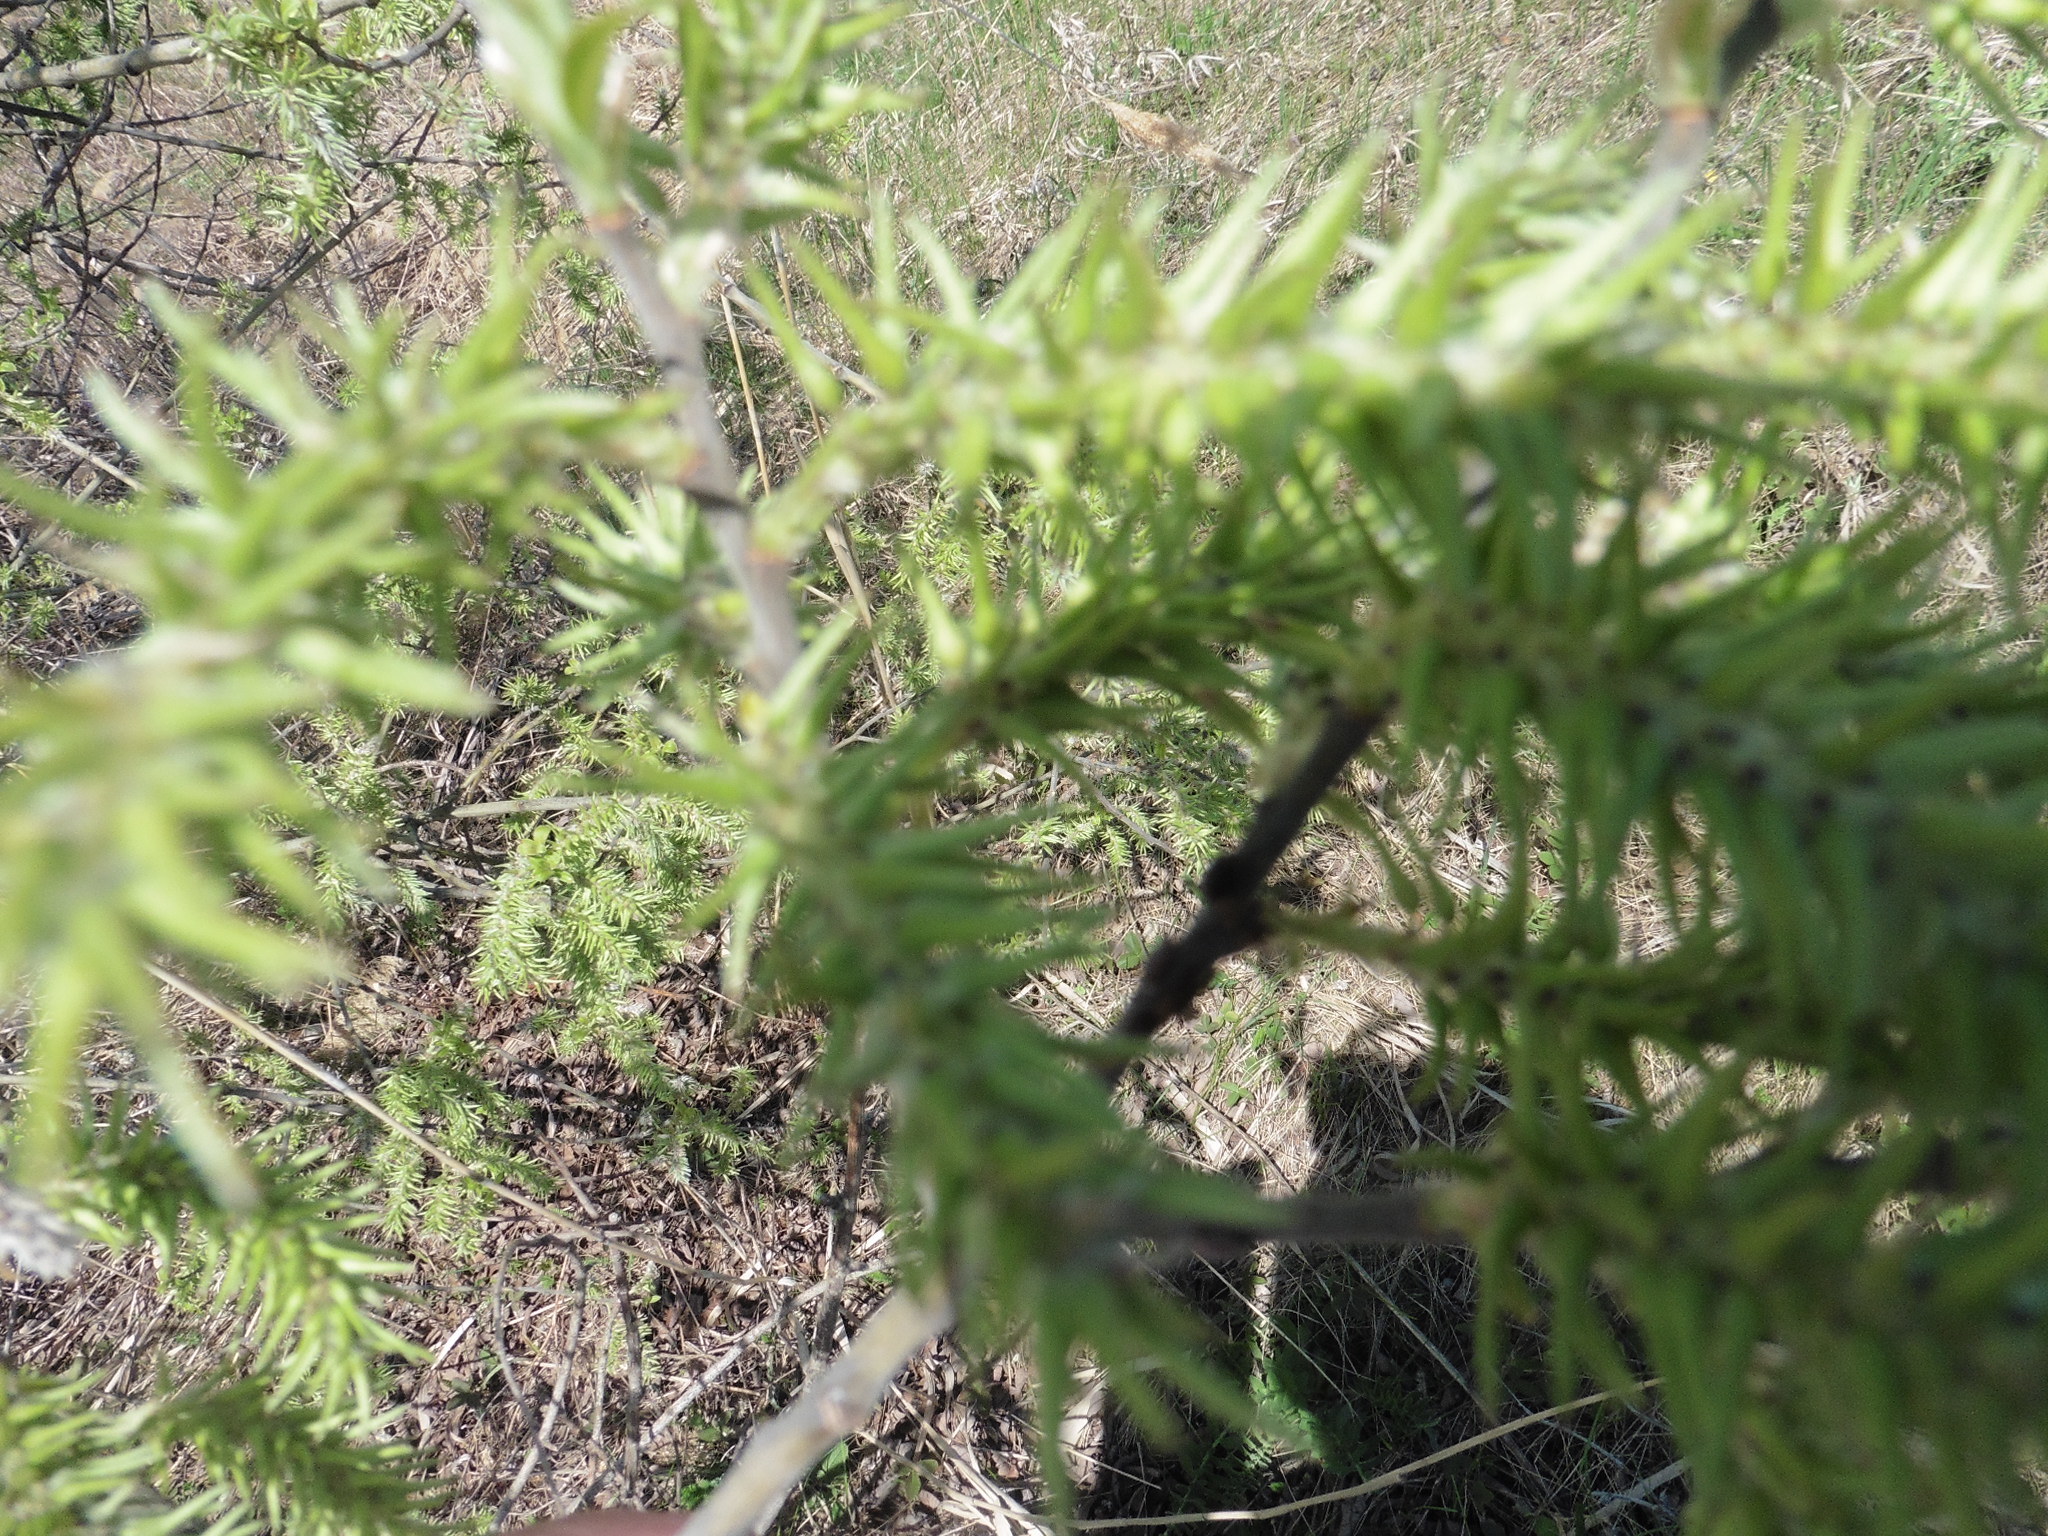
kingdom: Plantae
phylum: Tracheophyta
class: Magnoliopsida
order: Malpighiales
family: Salicaceae
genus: Salix
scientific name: Salix caprea
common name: Goat willow
